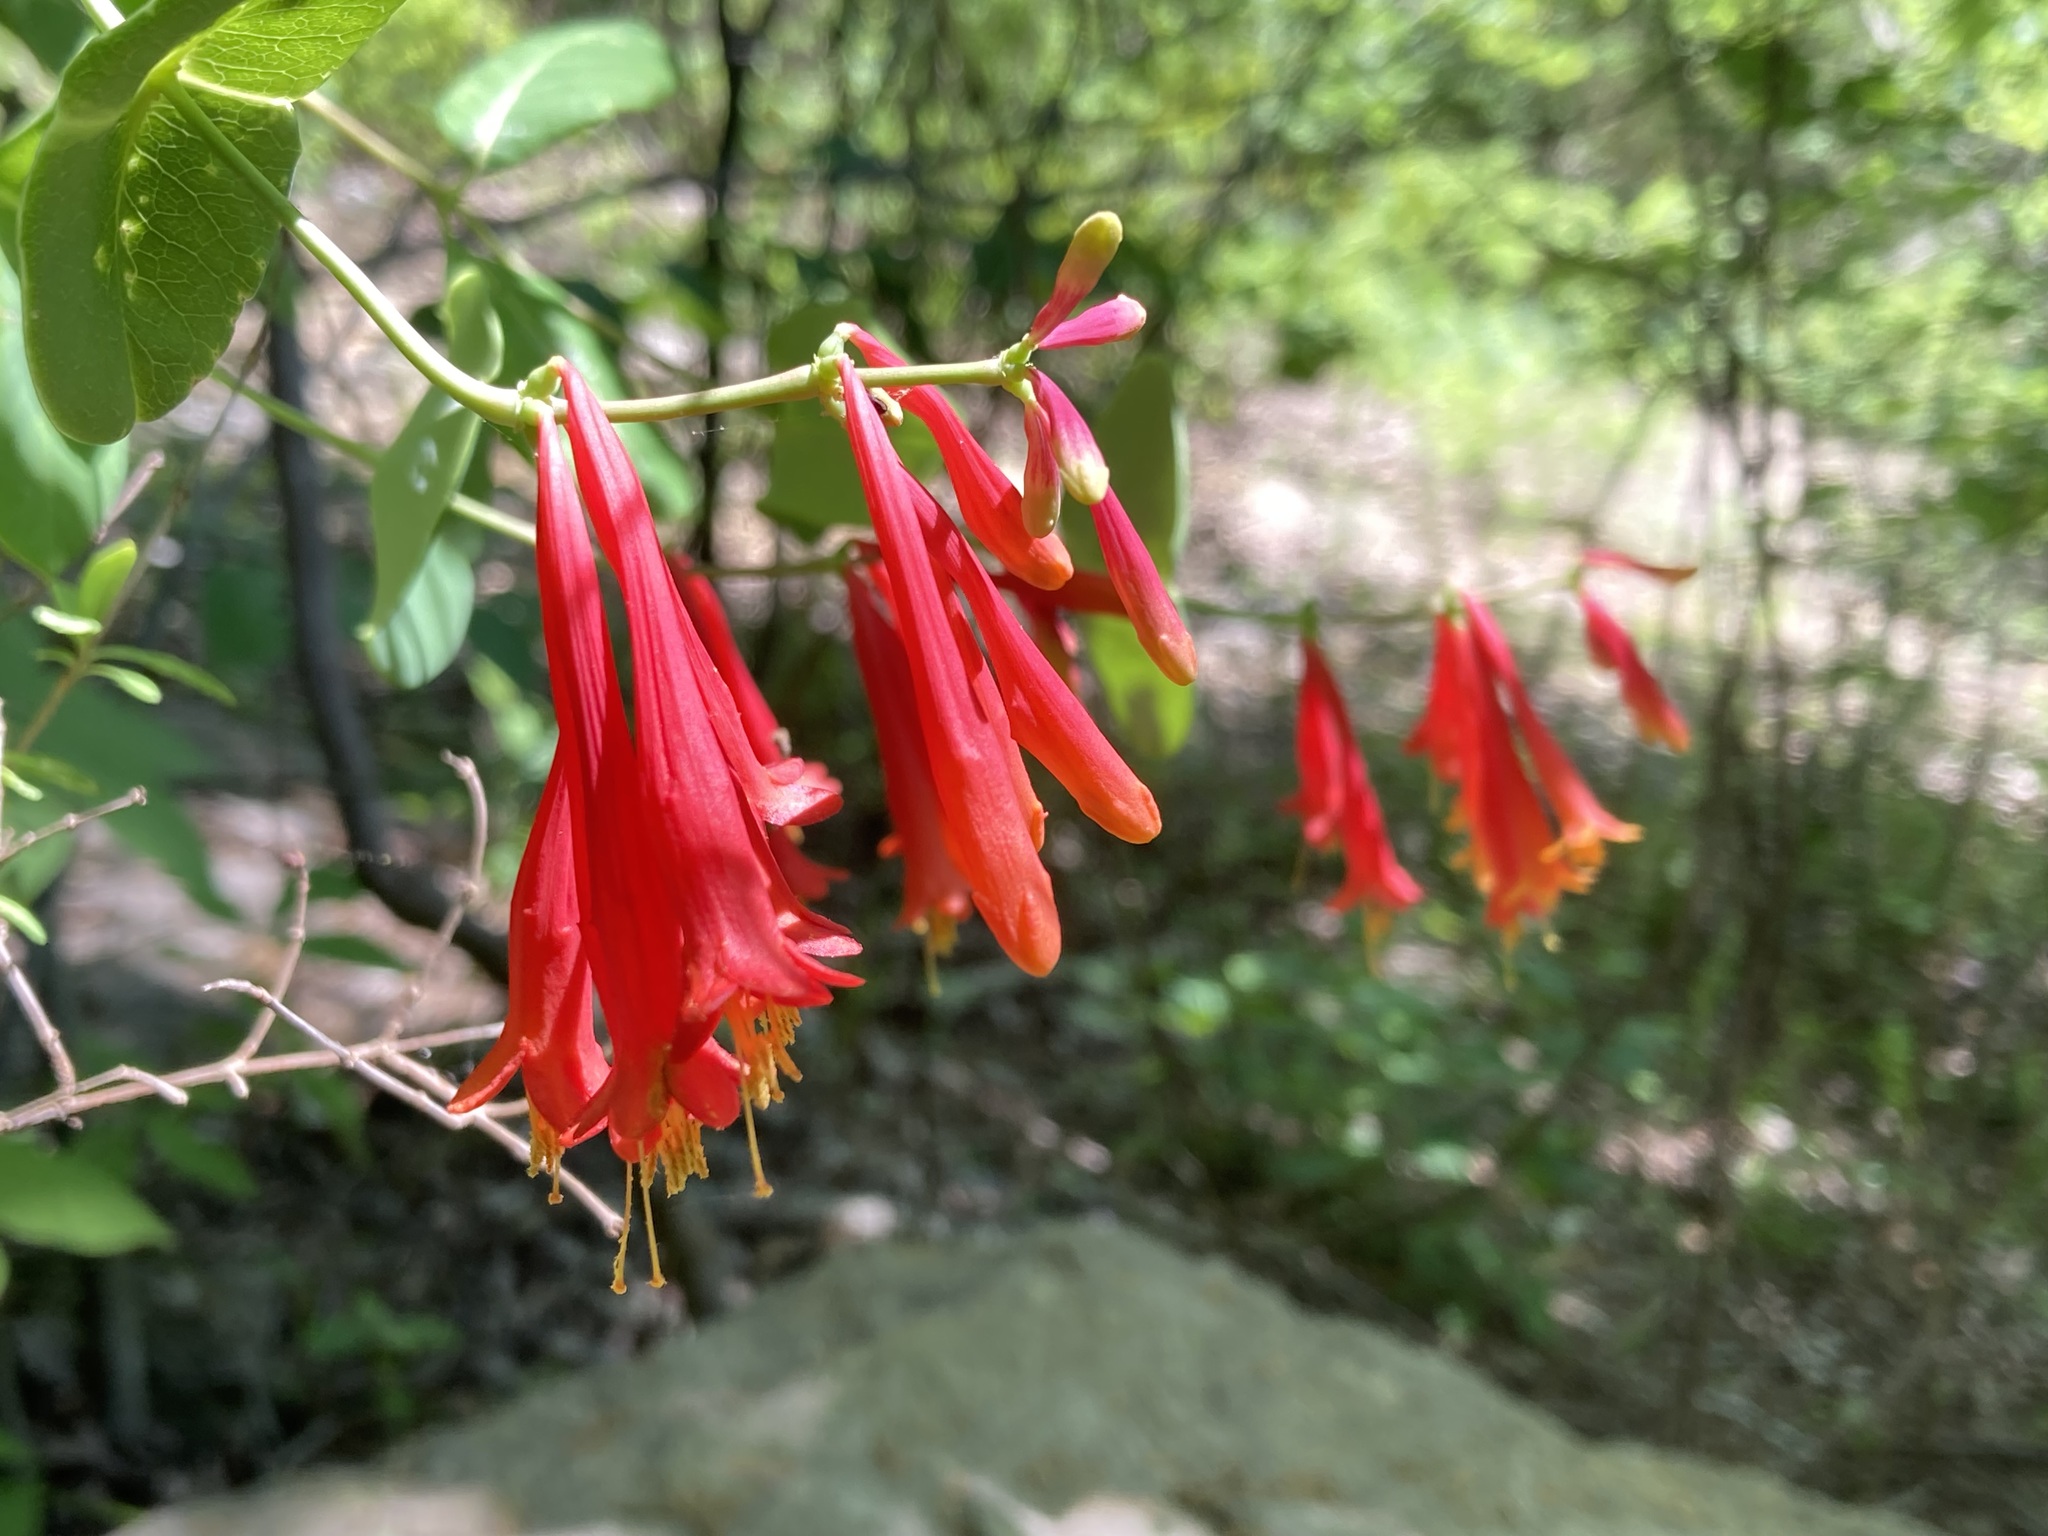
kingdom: Plantae
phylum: Tracheophyta
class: Magnoliopsida
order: Dipsacales
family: Caprifoliaceae
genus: Lonicera
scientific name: Lonicera sempervirens
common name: Coral honeysuckle
